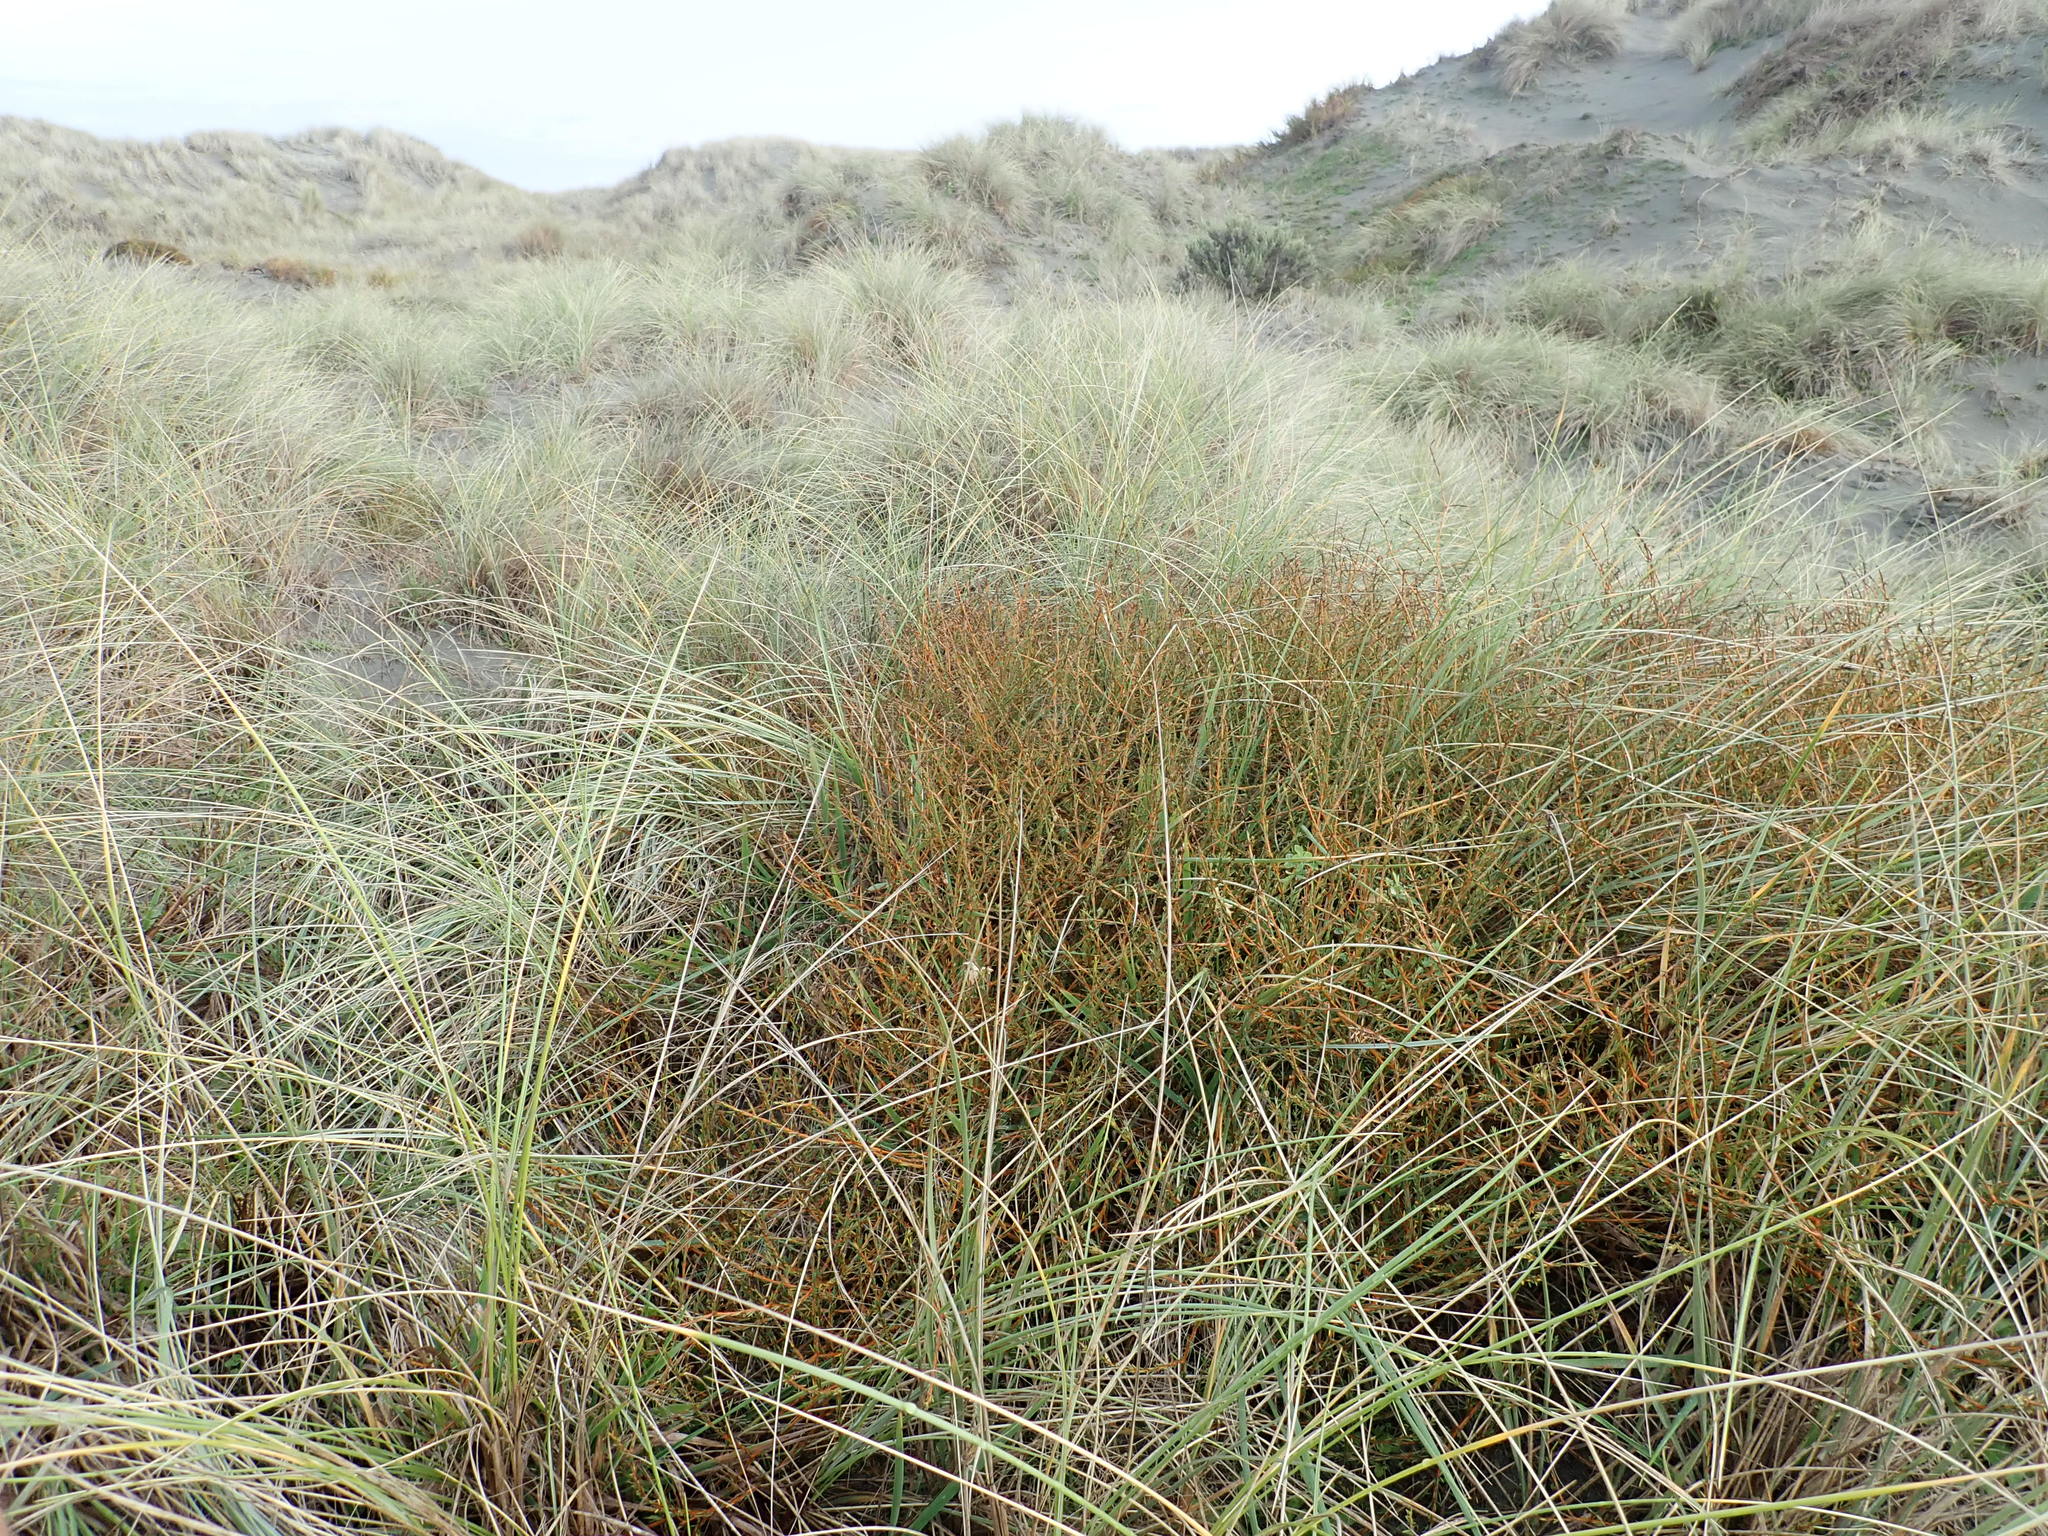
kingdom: Plantae
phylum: Tracheophyta
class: Magnoliopsida
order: Gentianales
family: Rubiaceae
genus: Coprosma
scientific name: Coprosma acerosa
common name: Sand coprosma
